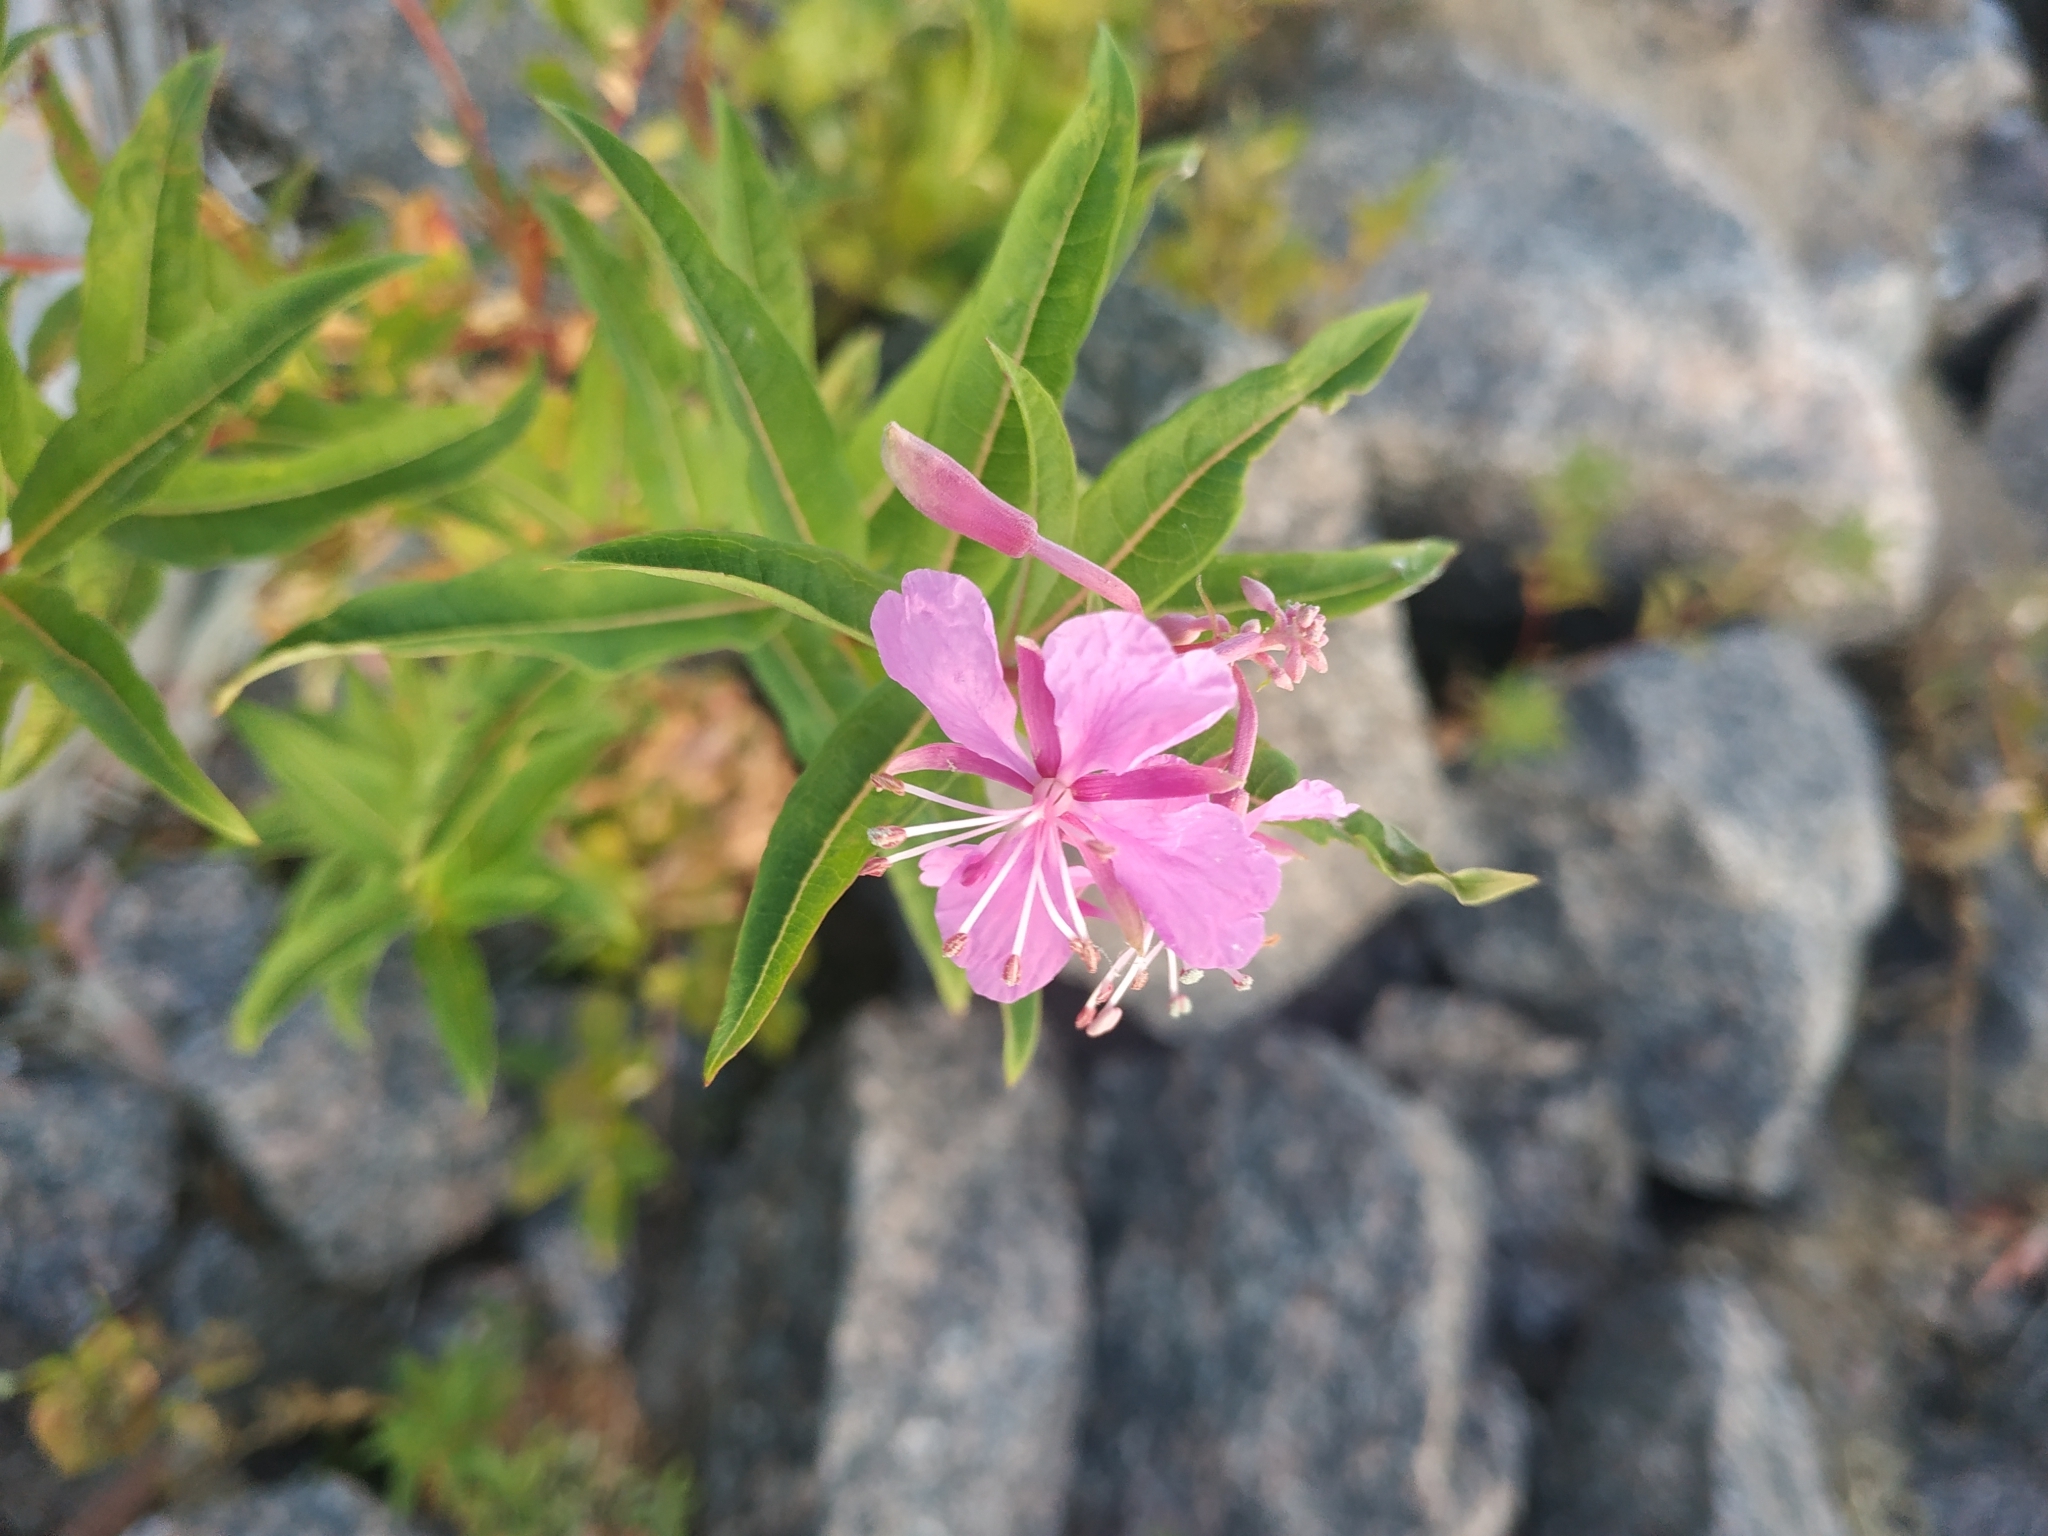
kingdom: Plantae
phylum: Tracheophyta
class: Magnoliopsida
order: Myrtales
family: Onagraceae
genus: Chamaenerion
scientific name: Chamaenerion angustifolium
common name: Fireweed
